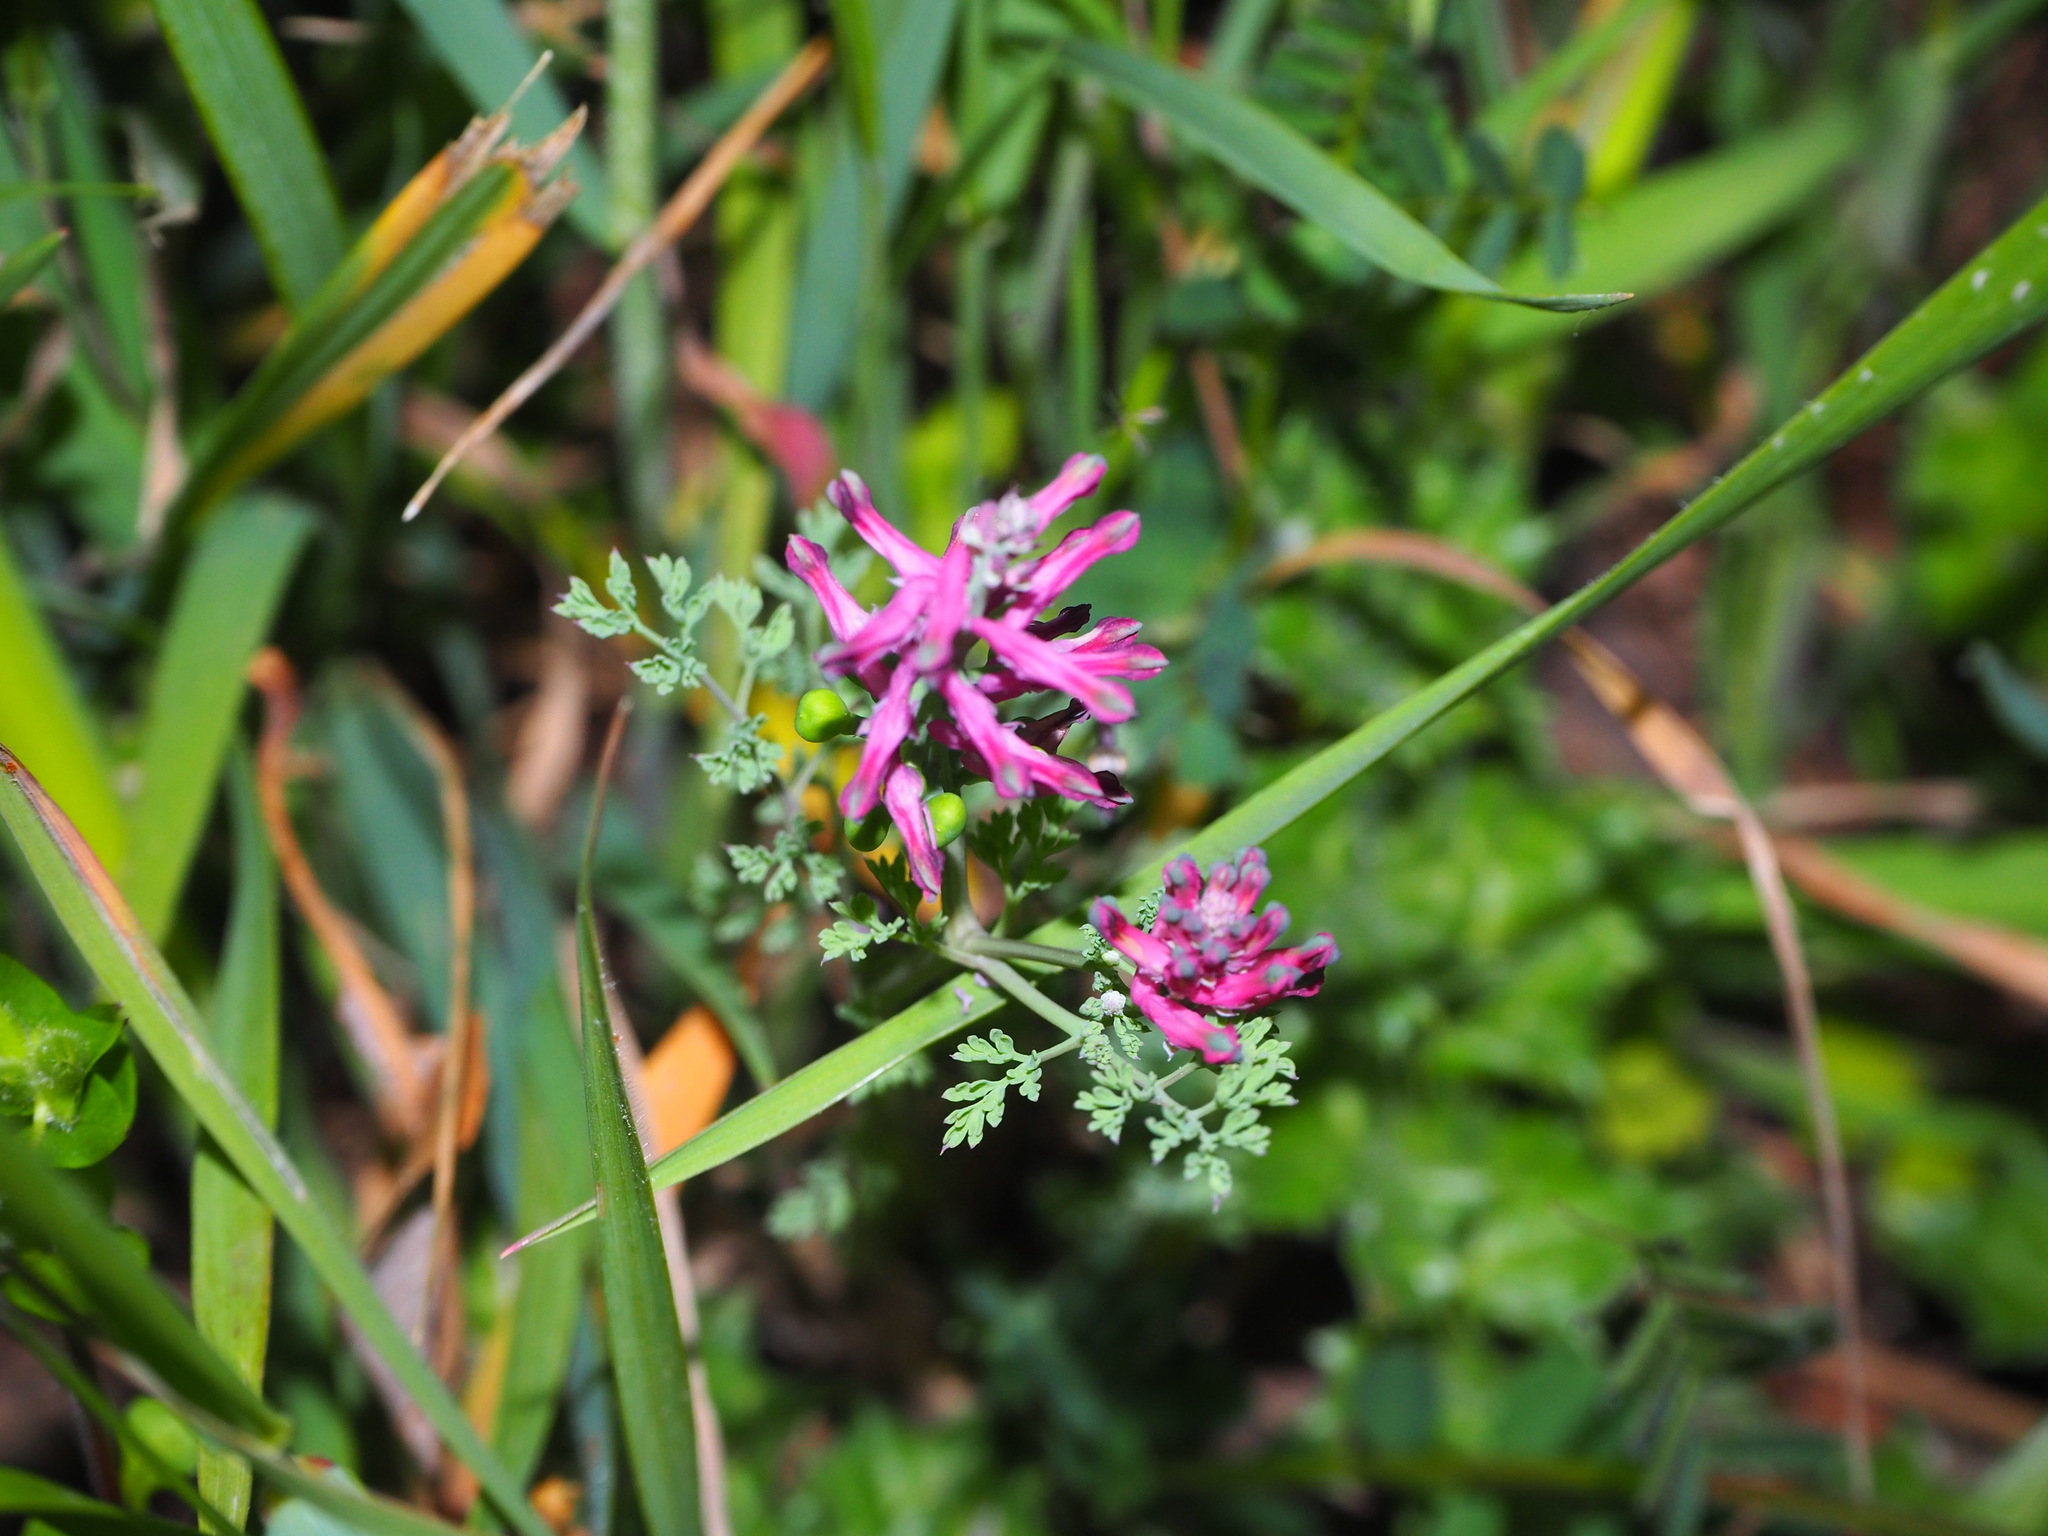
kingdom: Plantae
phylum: Tracheophyta
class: Magnoliopsida
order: Ranunculales
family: Papaveraceae
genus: Fumaria
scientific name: Fumaria officinalis
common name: Common fumitory
